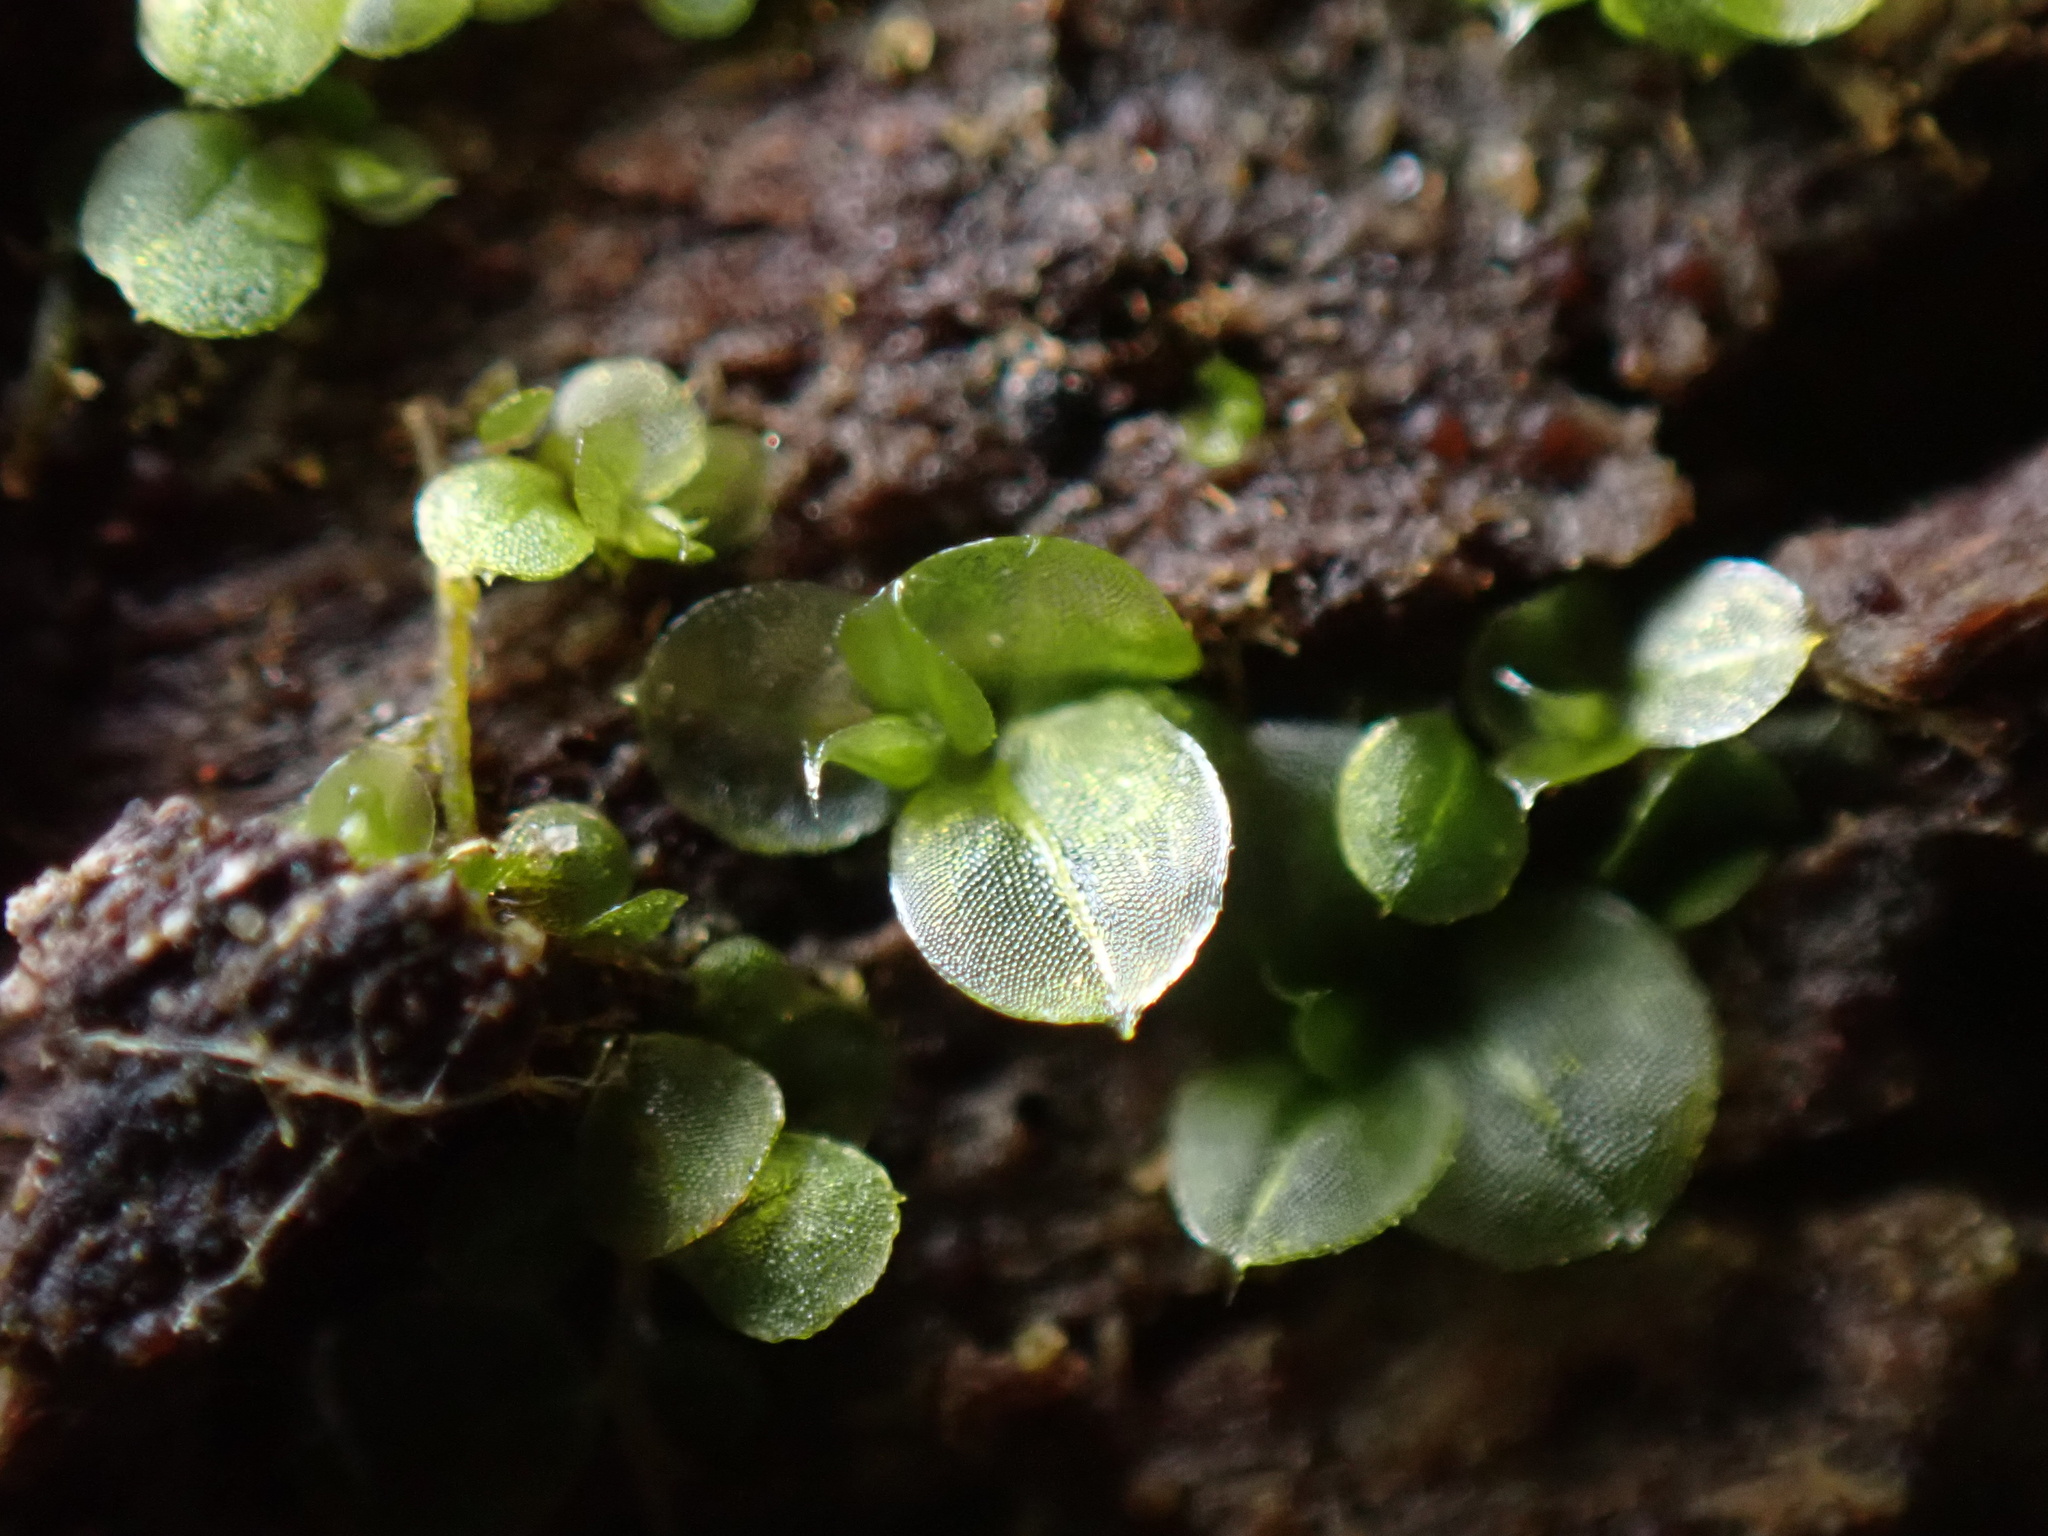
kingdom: Plantae
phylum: Bryophyta
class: Bryopsida
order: Bryales
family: Mniaceae
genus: Plagiomnium
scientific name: Plagiomnium ciliare
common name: Toothed leafy moss
